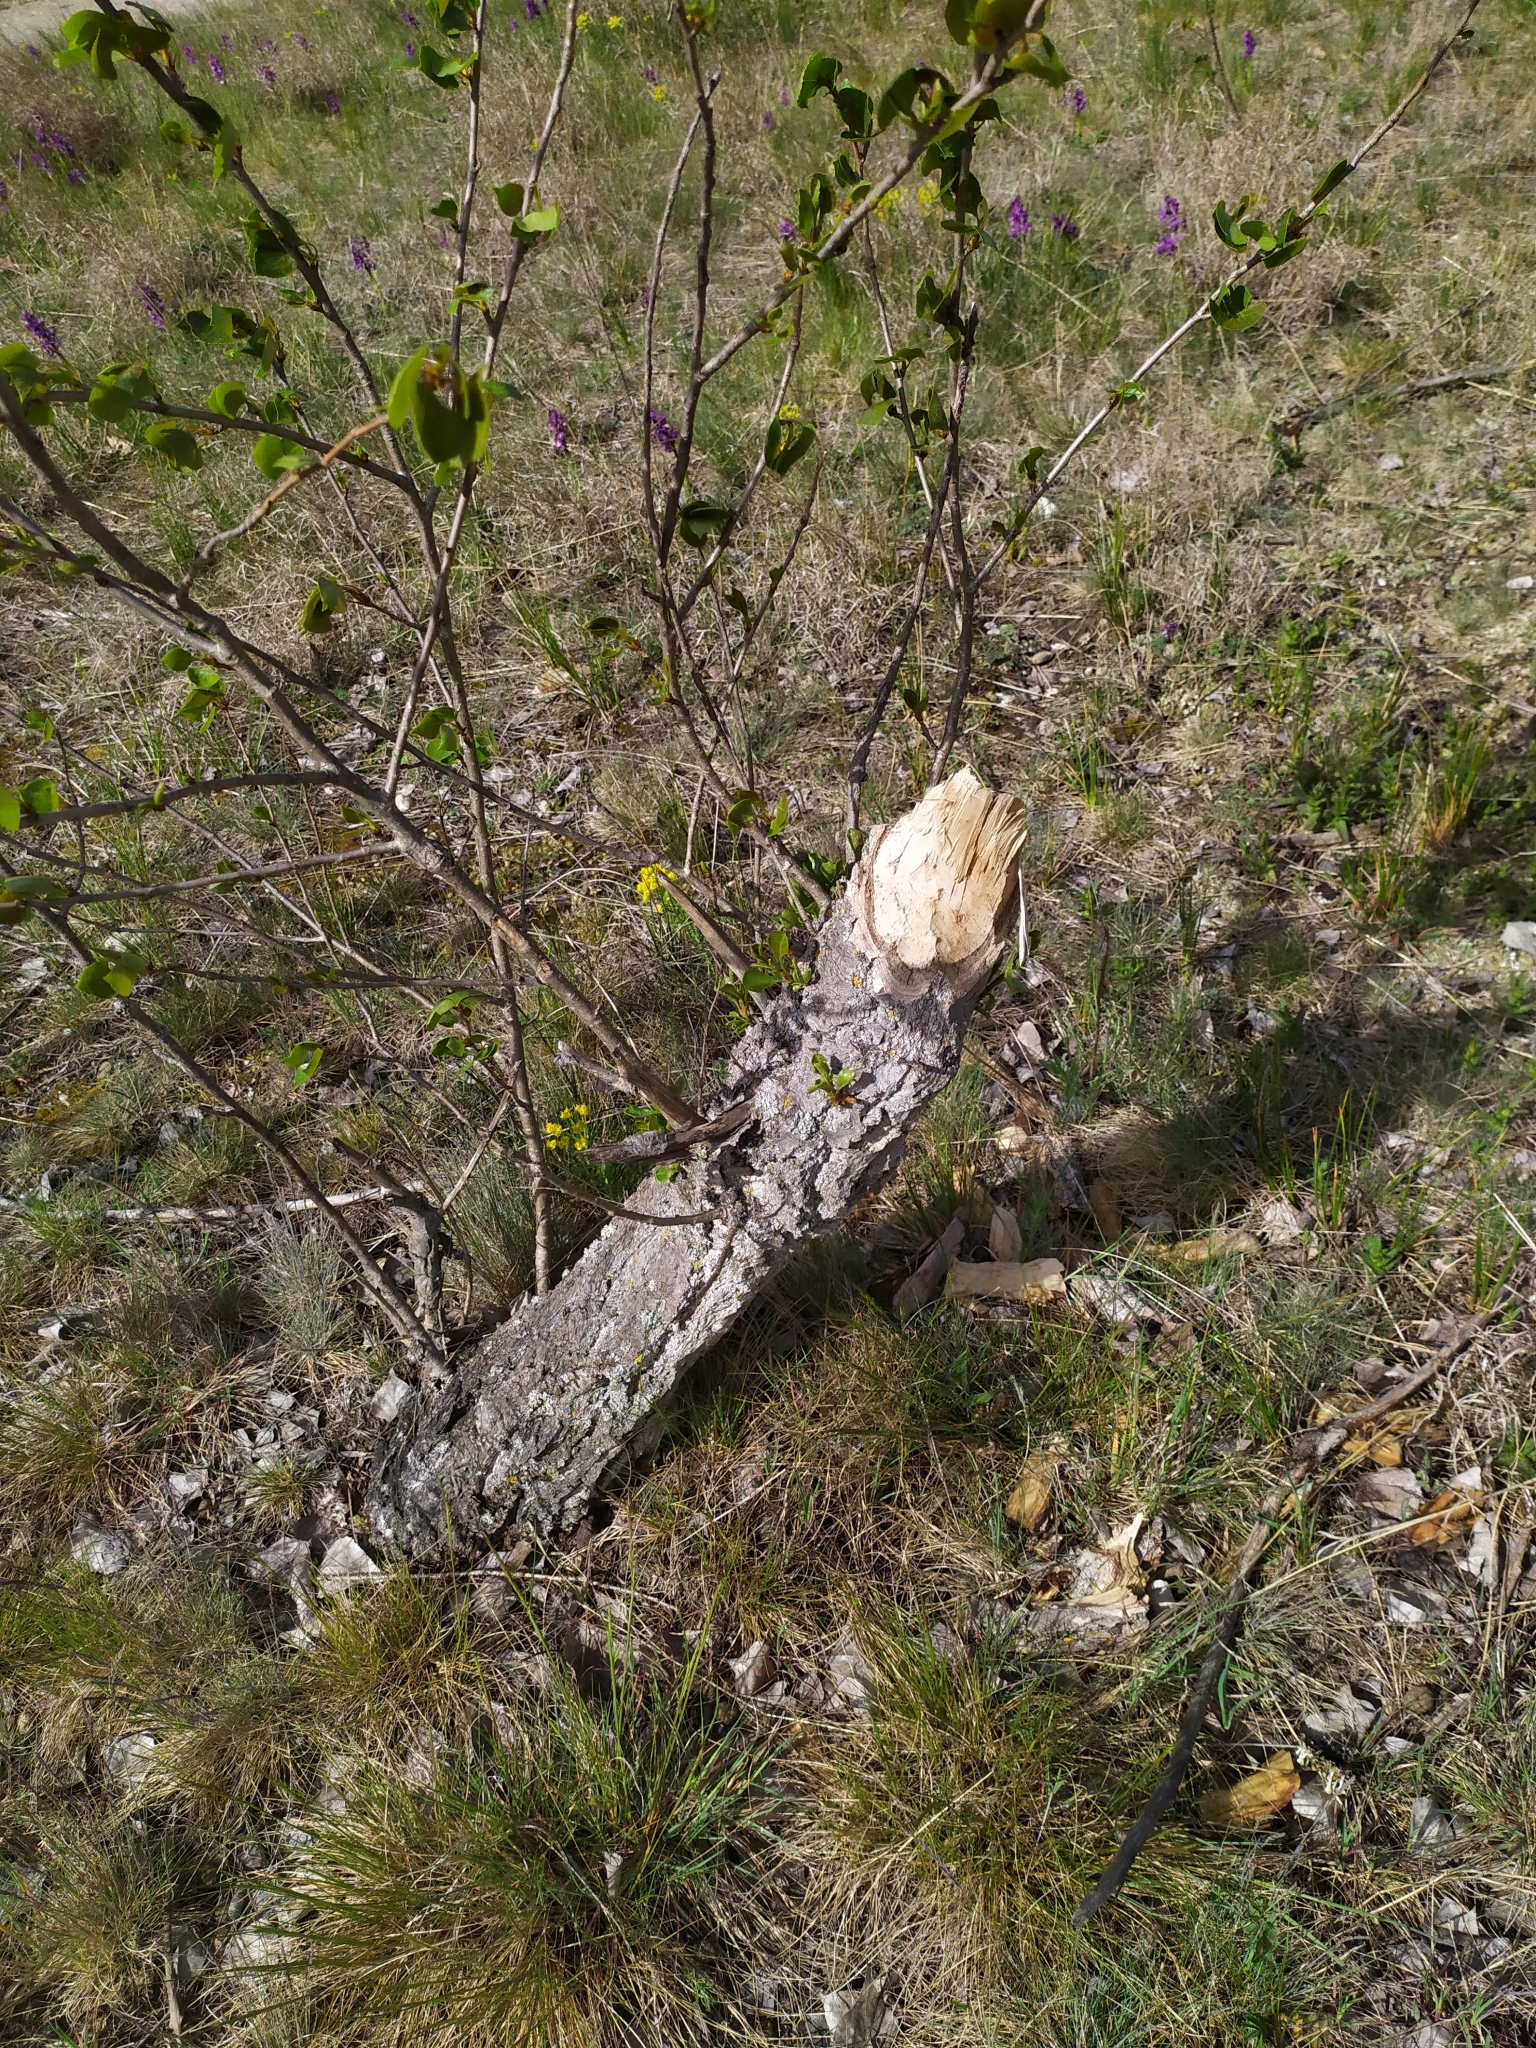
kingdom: Animalia
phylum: Chordata
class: Mammalia
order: Rodentia
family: Castoridae
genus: Castor
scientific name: Castor fiber
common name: Eurasian beaver
